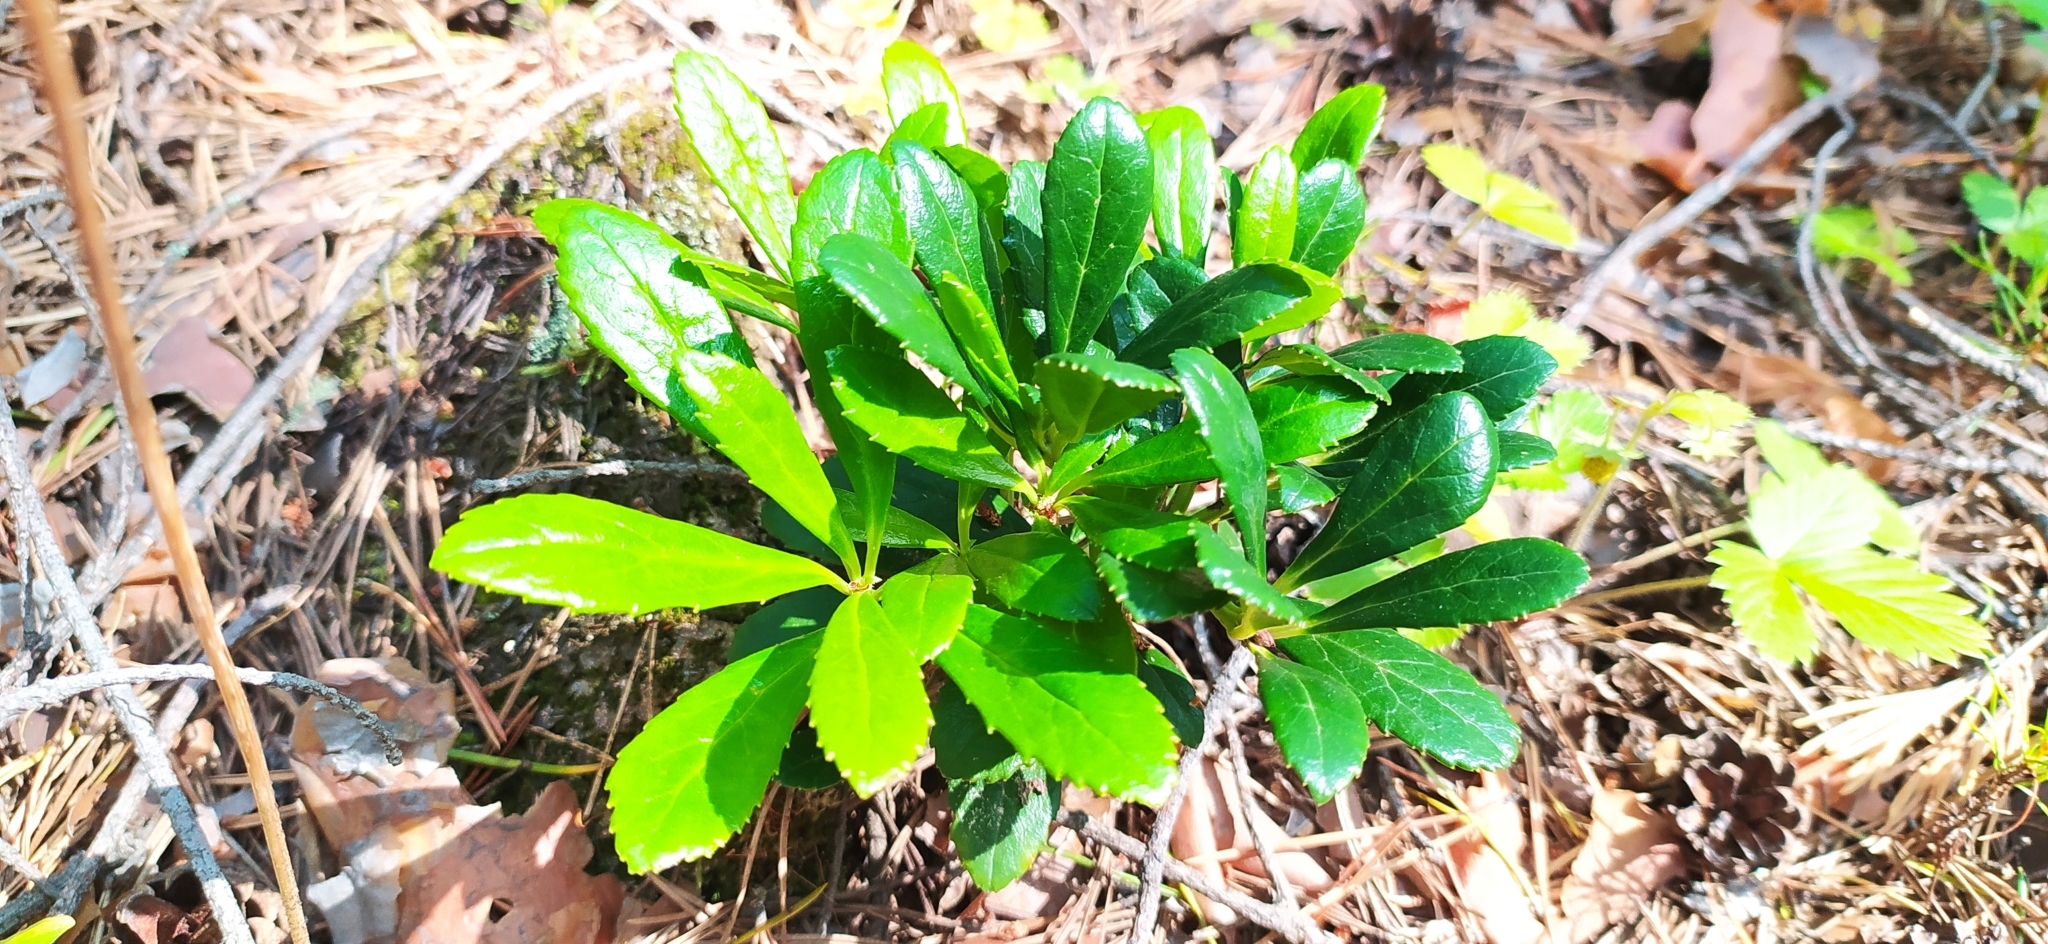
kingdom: Plantae
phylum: Tracheophyta
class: Magnoliopsida
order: Ericales
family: Ericaceae
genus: Chimaphila
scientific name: Chimaphila umbellata
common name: Pipsissewa
